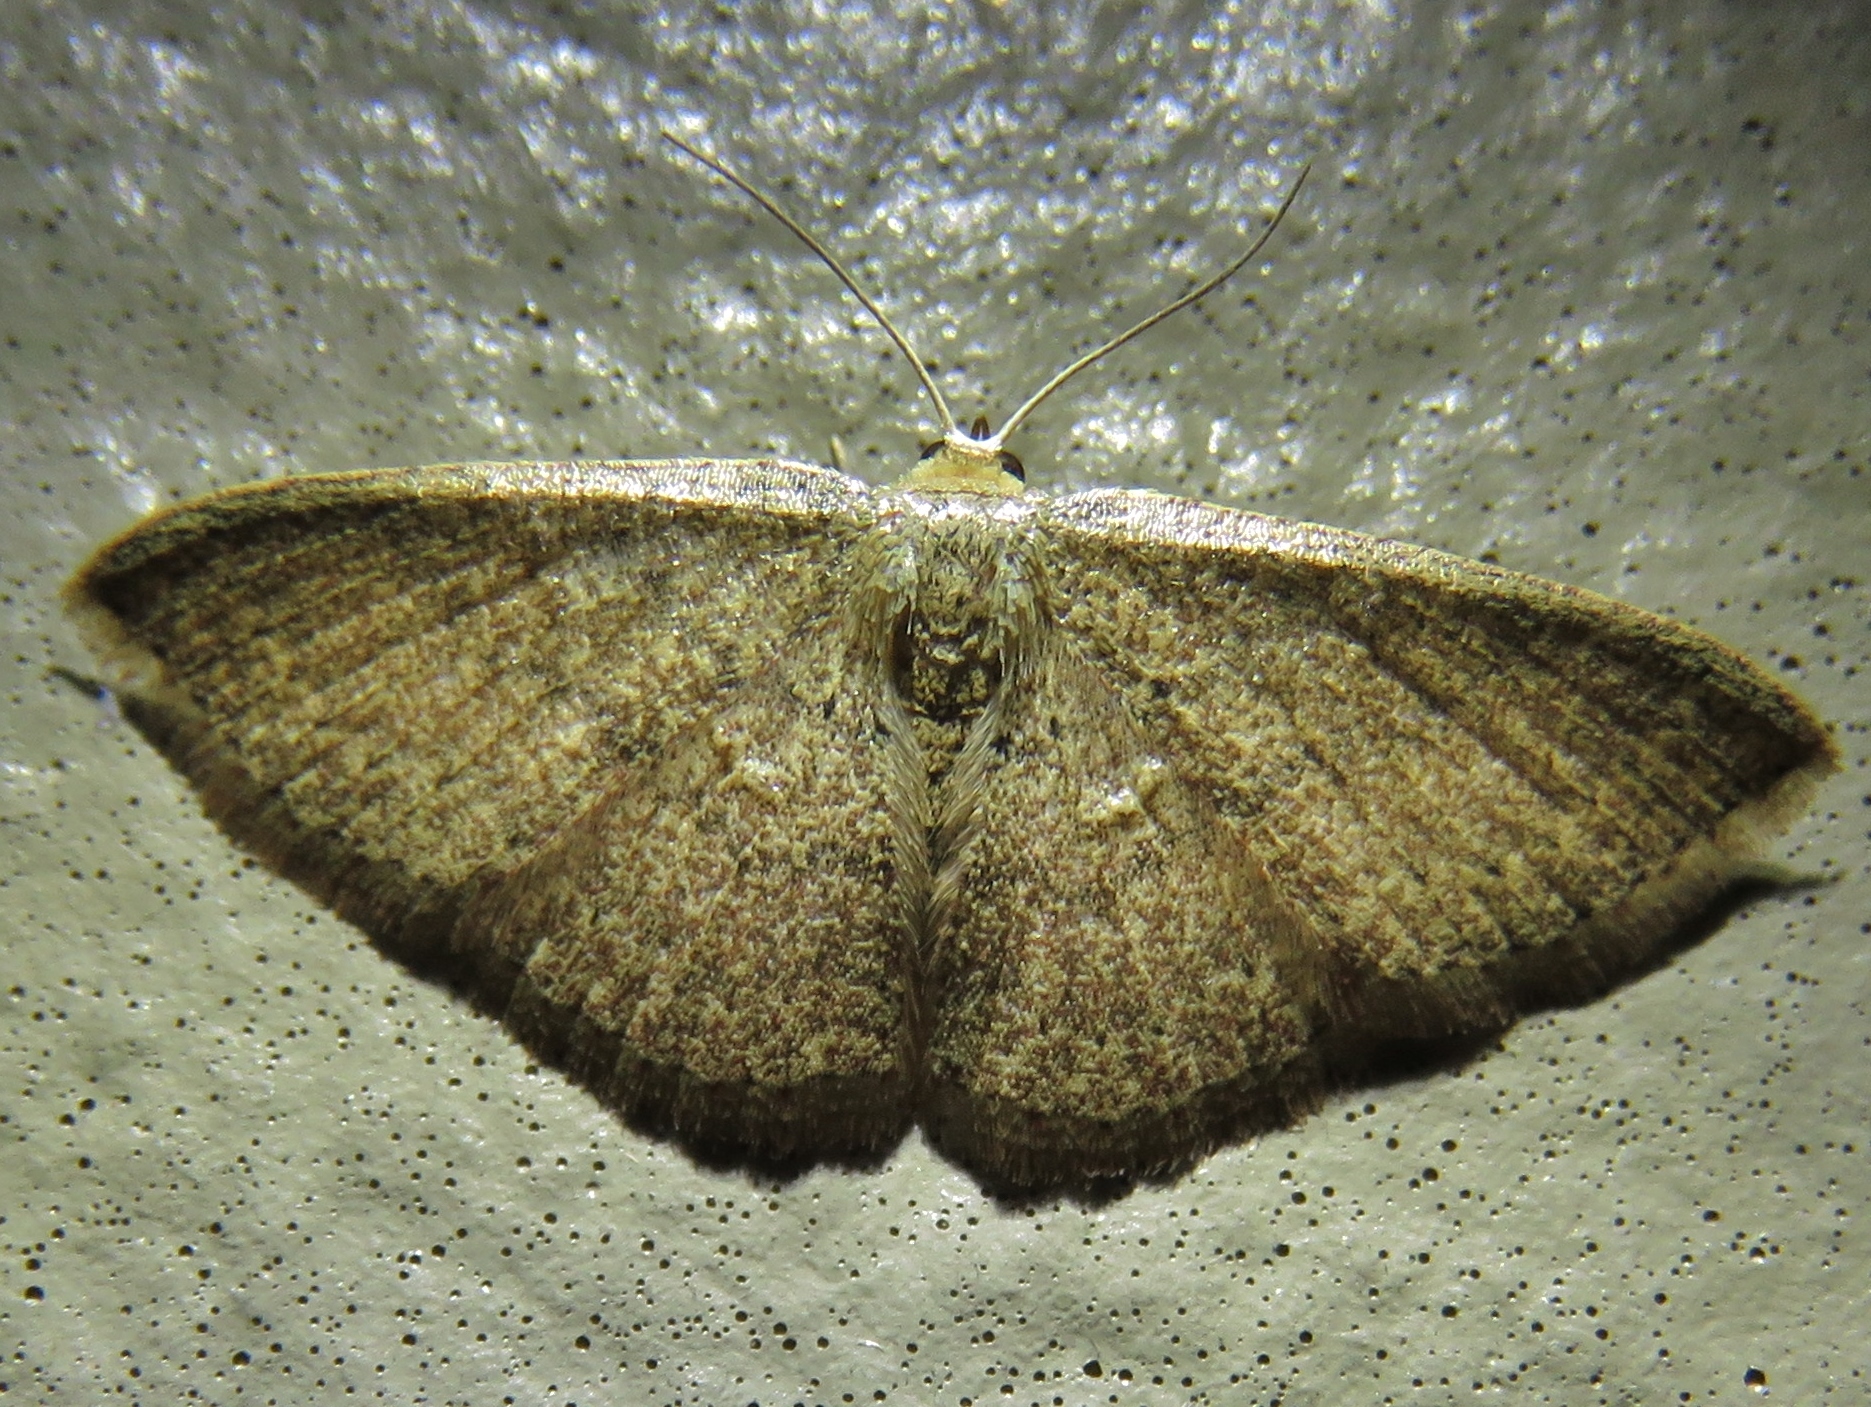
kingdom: Animalia
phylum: Arthropoda
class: Insecta
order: Lepidoptera
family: Geometridae
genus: Pleuroprucha
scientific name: Pleuroprucha insulsaria
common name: Common tan wave
